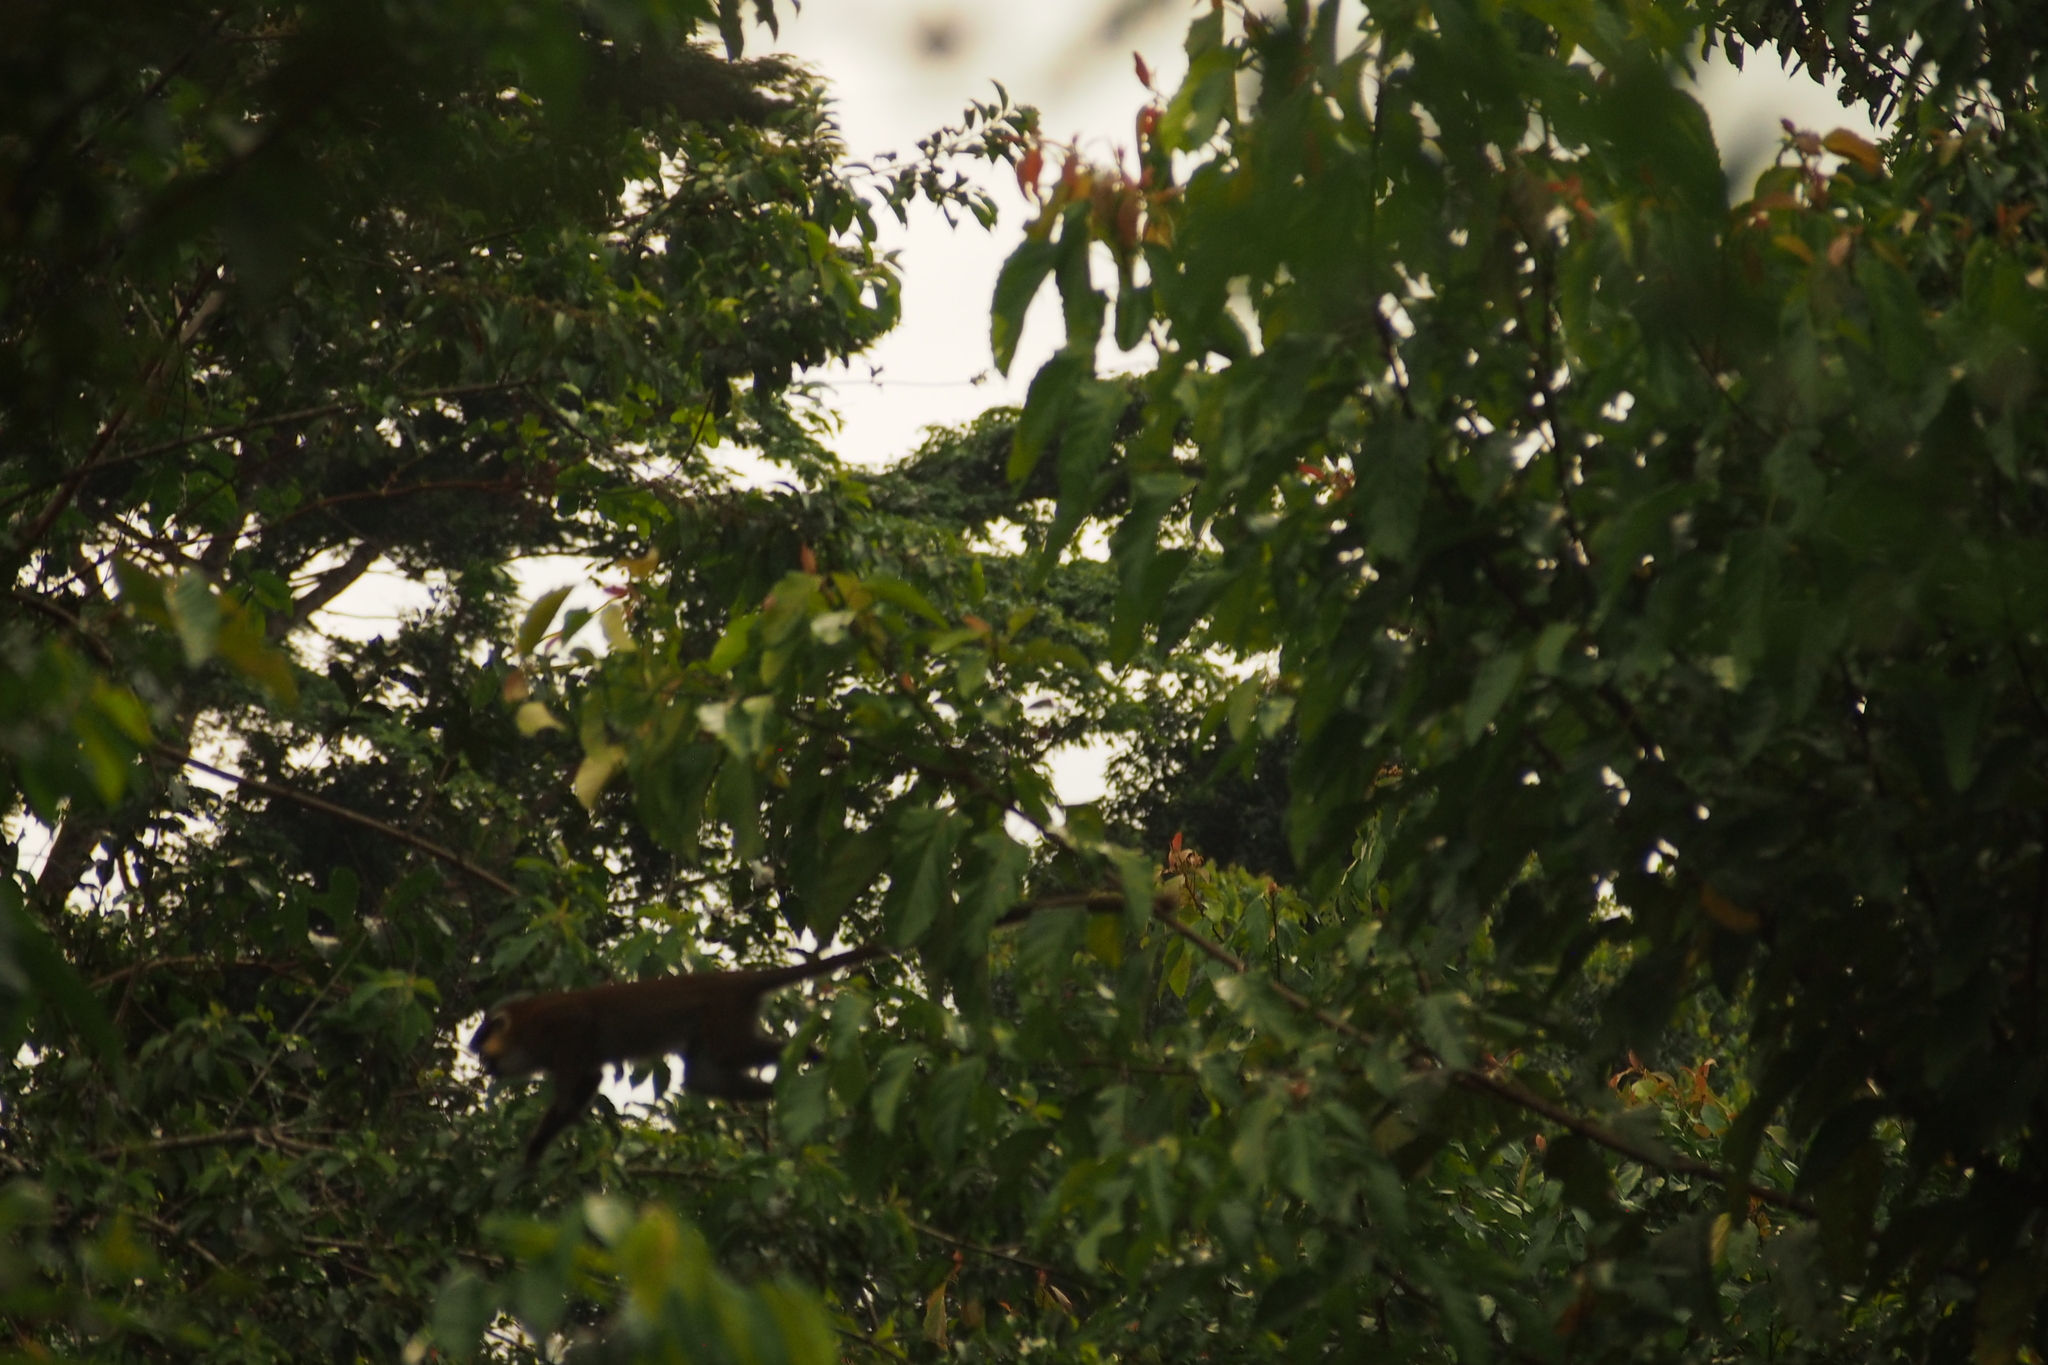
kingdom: Animalia
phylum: Chordata
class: Mammalia
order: Primates
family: Cercopithecidae
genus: Cercopithecus
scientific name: Cercopithecus cephus
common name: Moustached guenon
